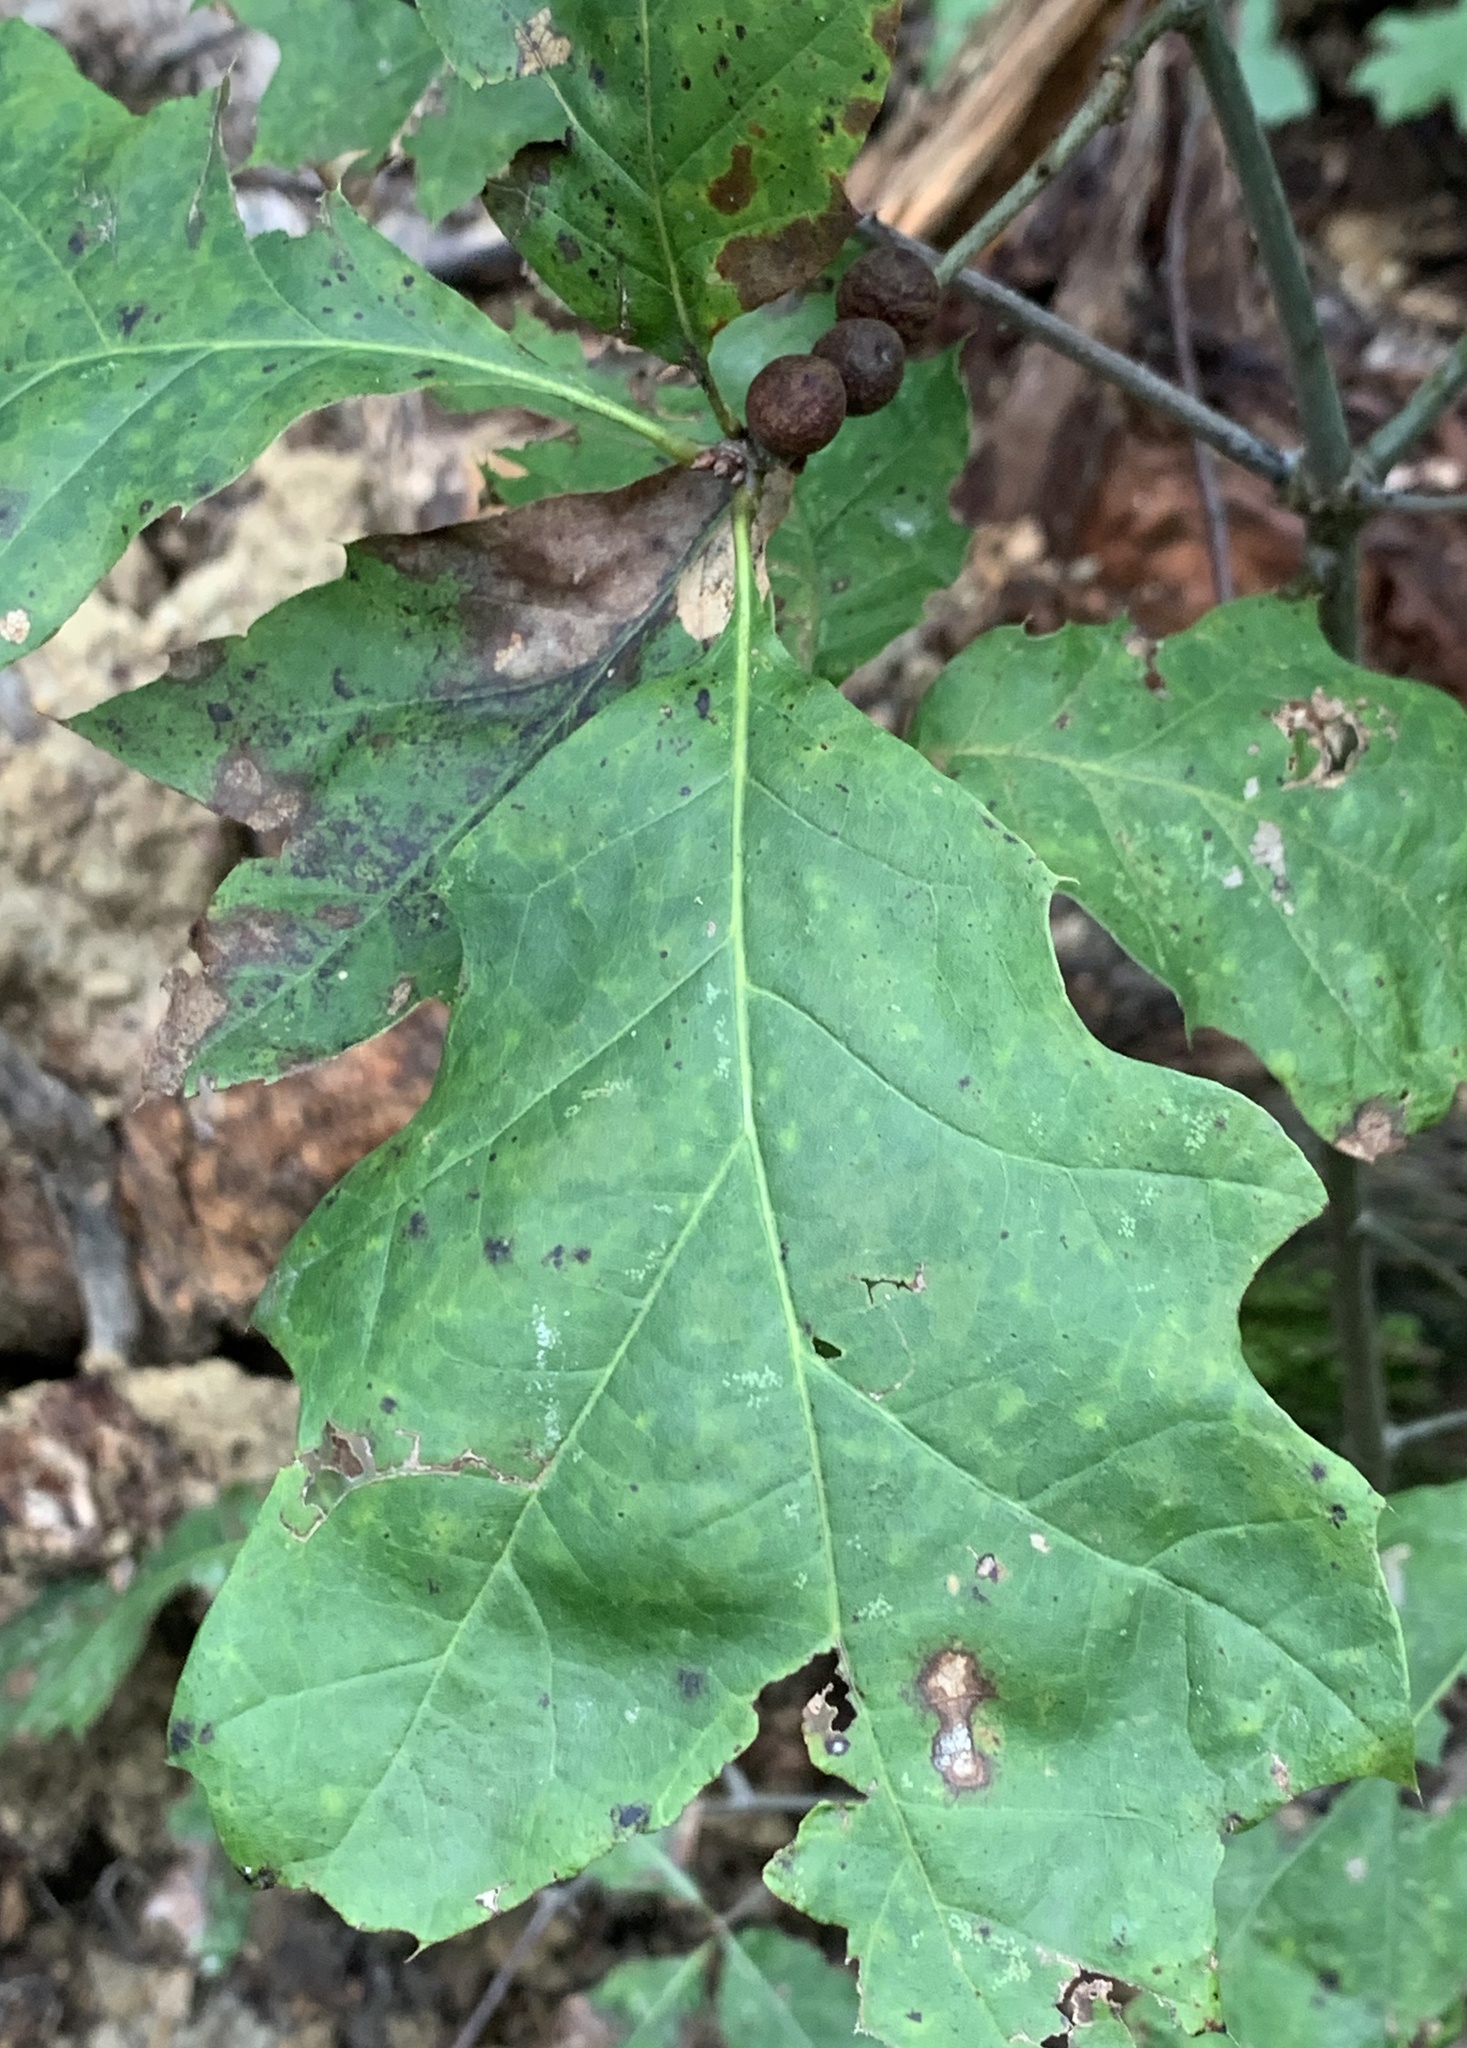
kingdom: Animalia
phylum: Arthropoda
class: Insecta
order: Hymenoptera
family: Cynipidae
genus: Kokkocynips
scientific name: Kokkocynips imbricariae
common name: Banded bullet gall wasp
